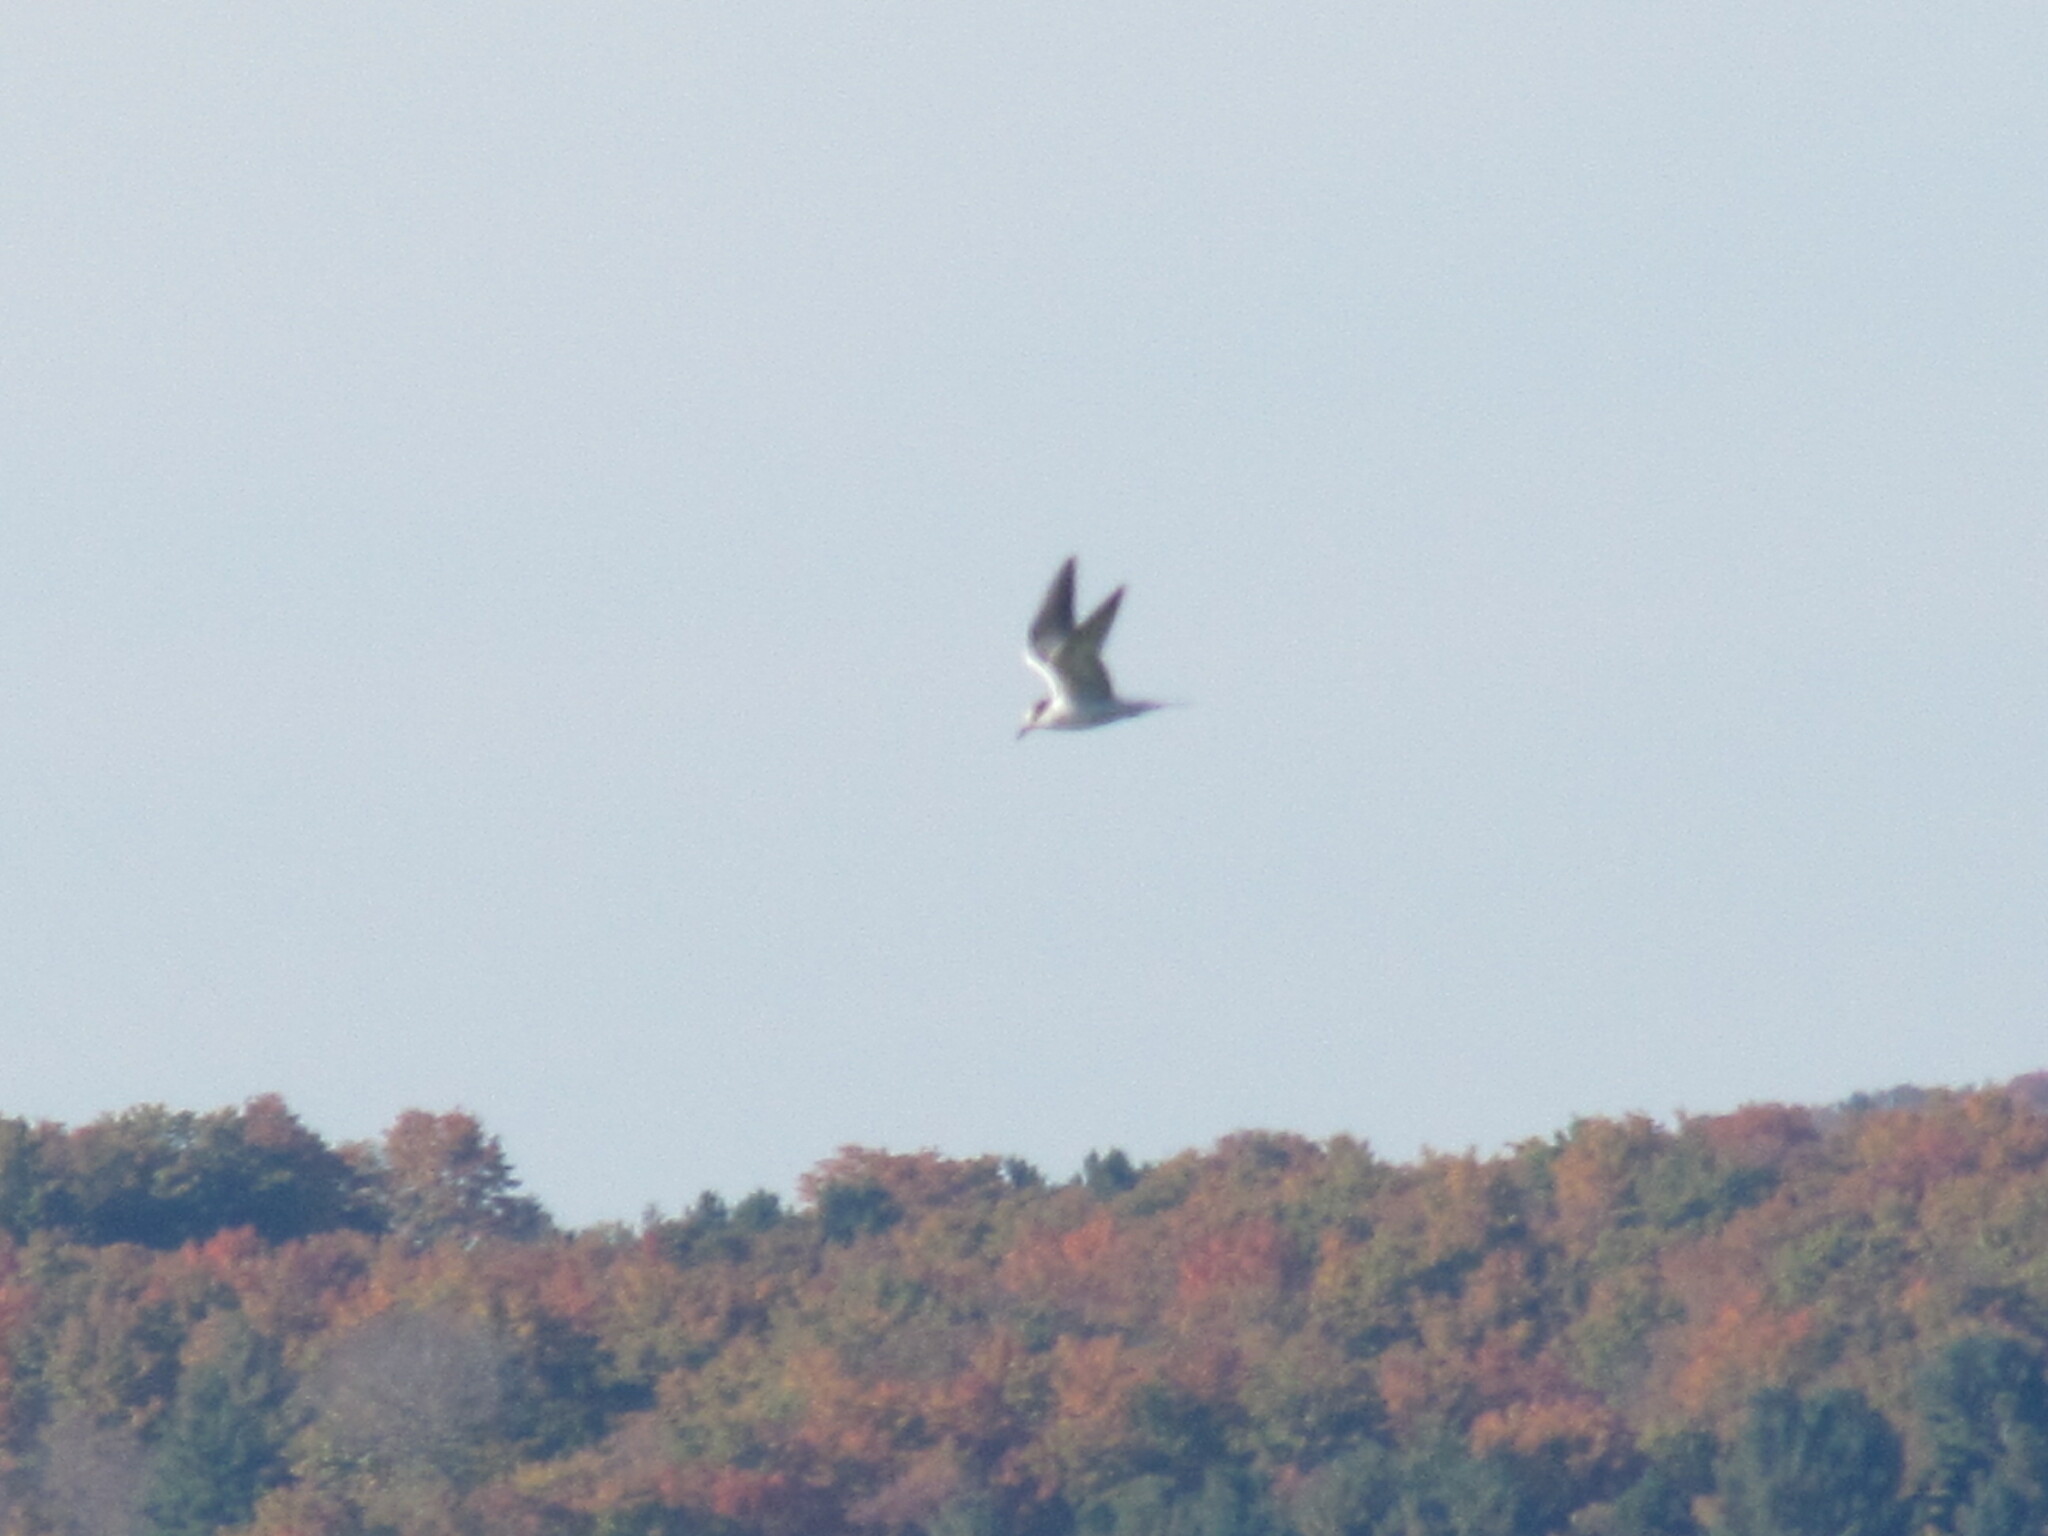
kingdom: Animalia
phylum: Chordata
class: Aves
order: Charadriiformes
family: Laridae
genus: Sterna
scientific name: Sterna forsteri
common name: Forster's tern
